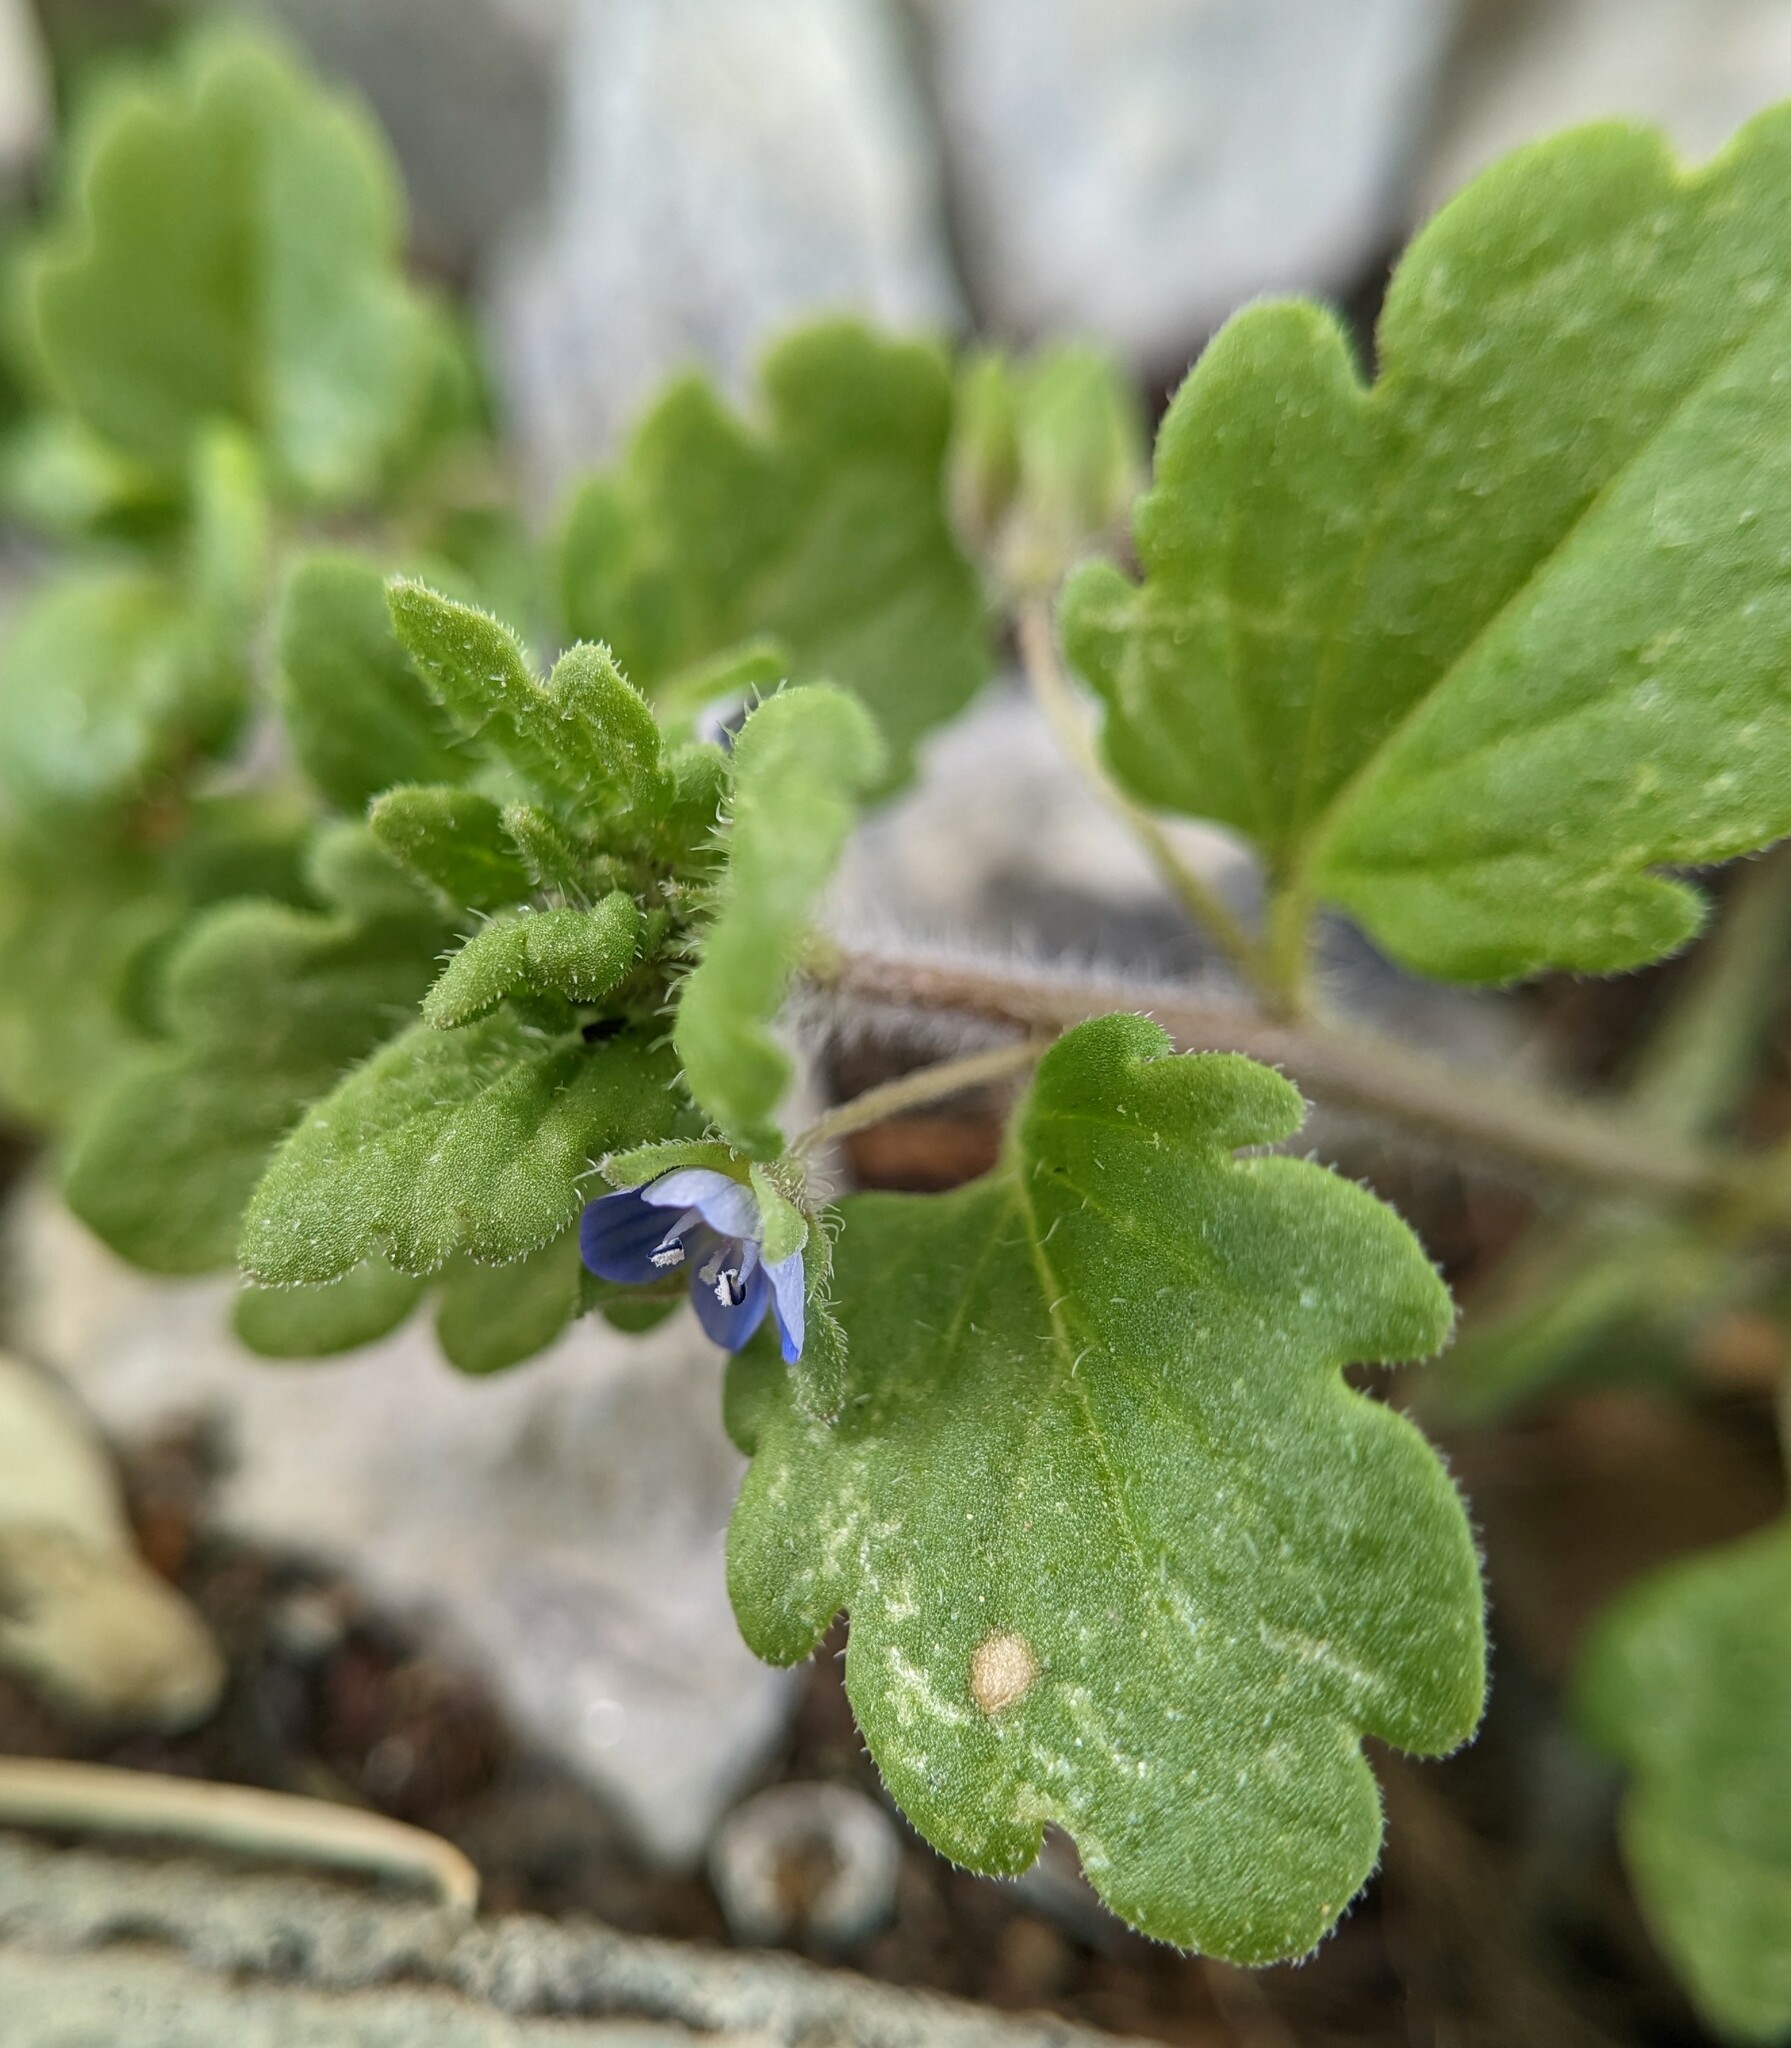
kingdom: Plantae
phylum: Tracheophyta
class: Magnoliopsida
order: Lamiales
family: Plantaginaceae
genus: Veronica
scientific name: Veronica polita
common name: Grey field-speedwell
